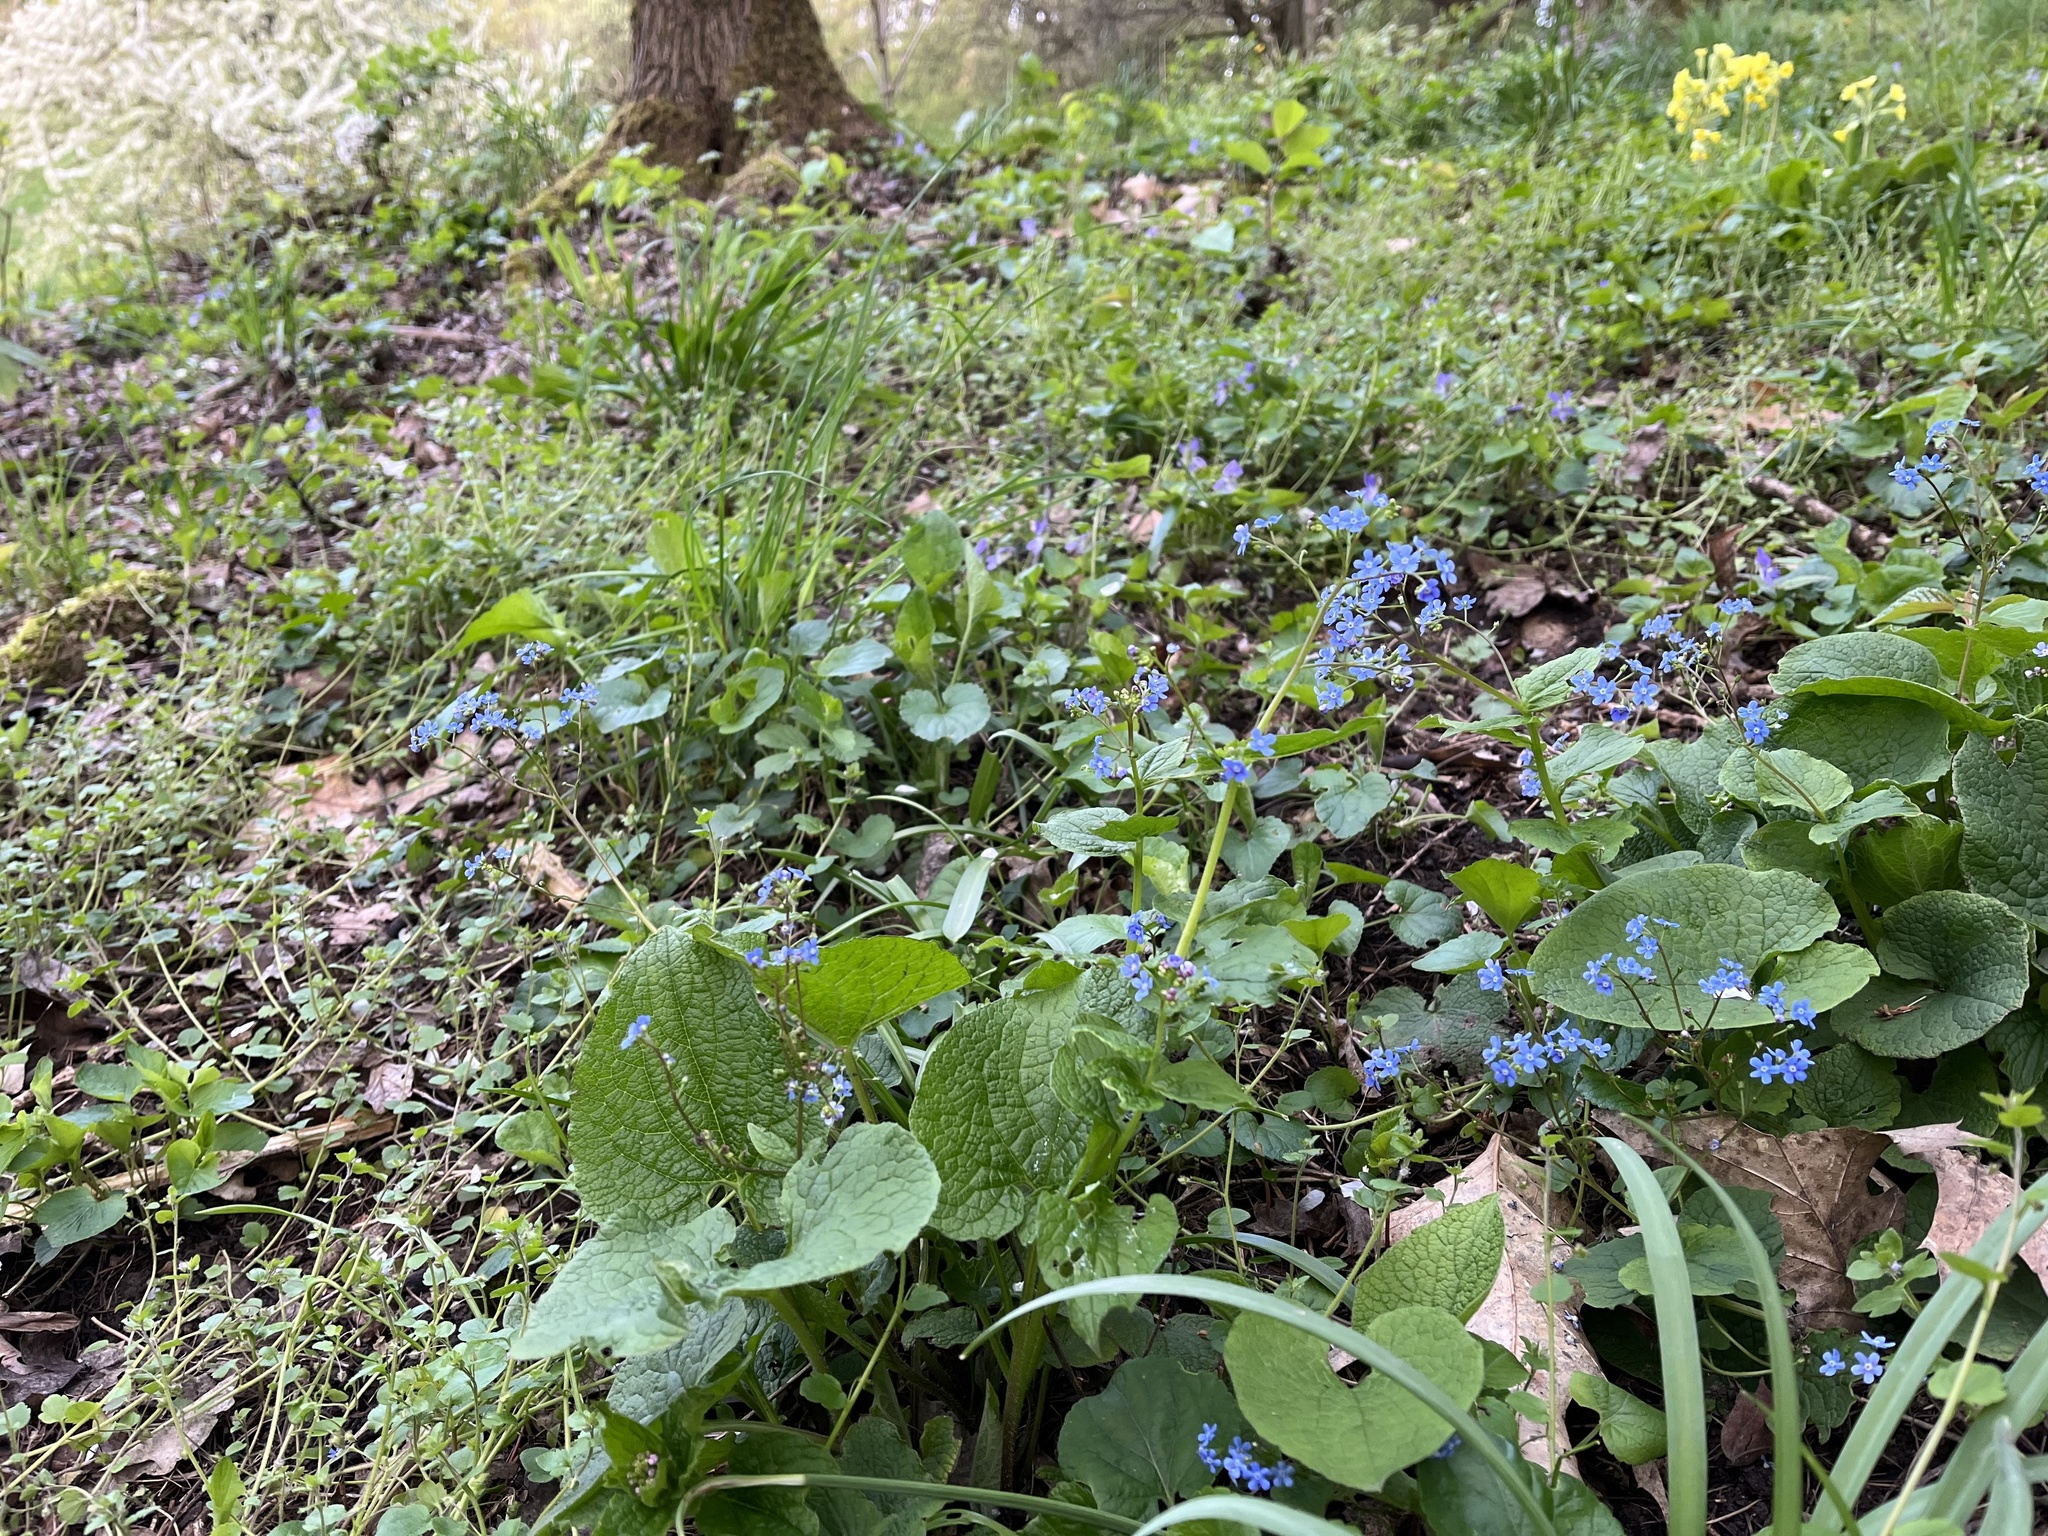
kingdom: Plantae
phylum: Tracheophyta
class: Magnoliopsida
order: Boraginales
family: Boraginaceae
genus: Brunnera
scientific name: Brunnera macrophylla
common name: Great forget-me-not
